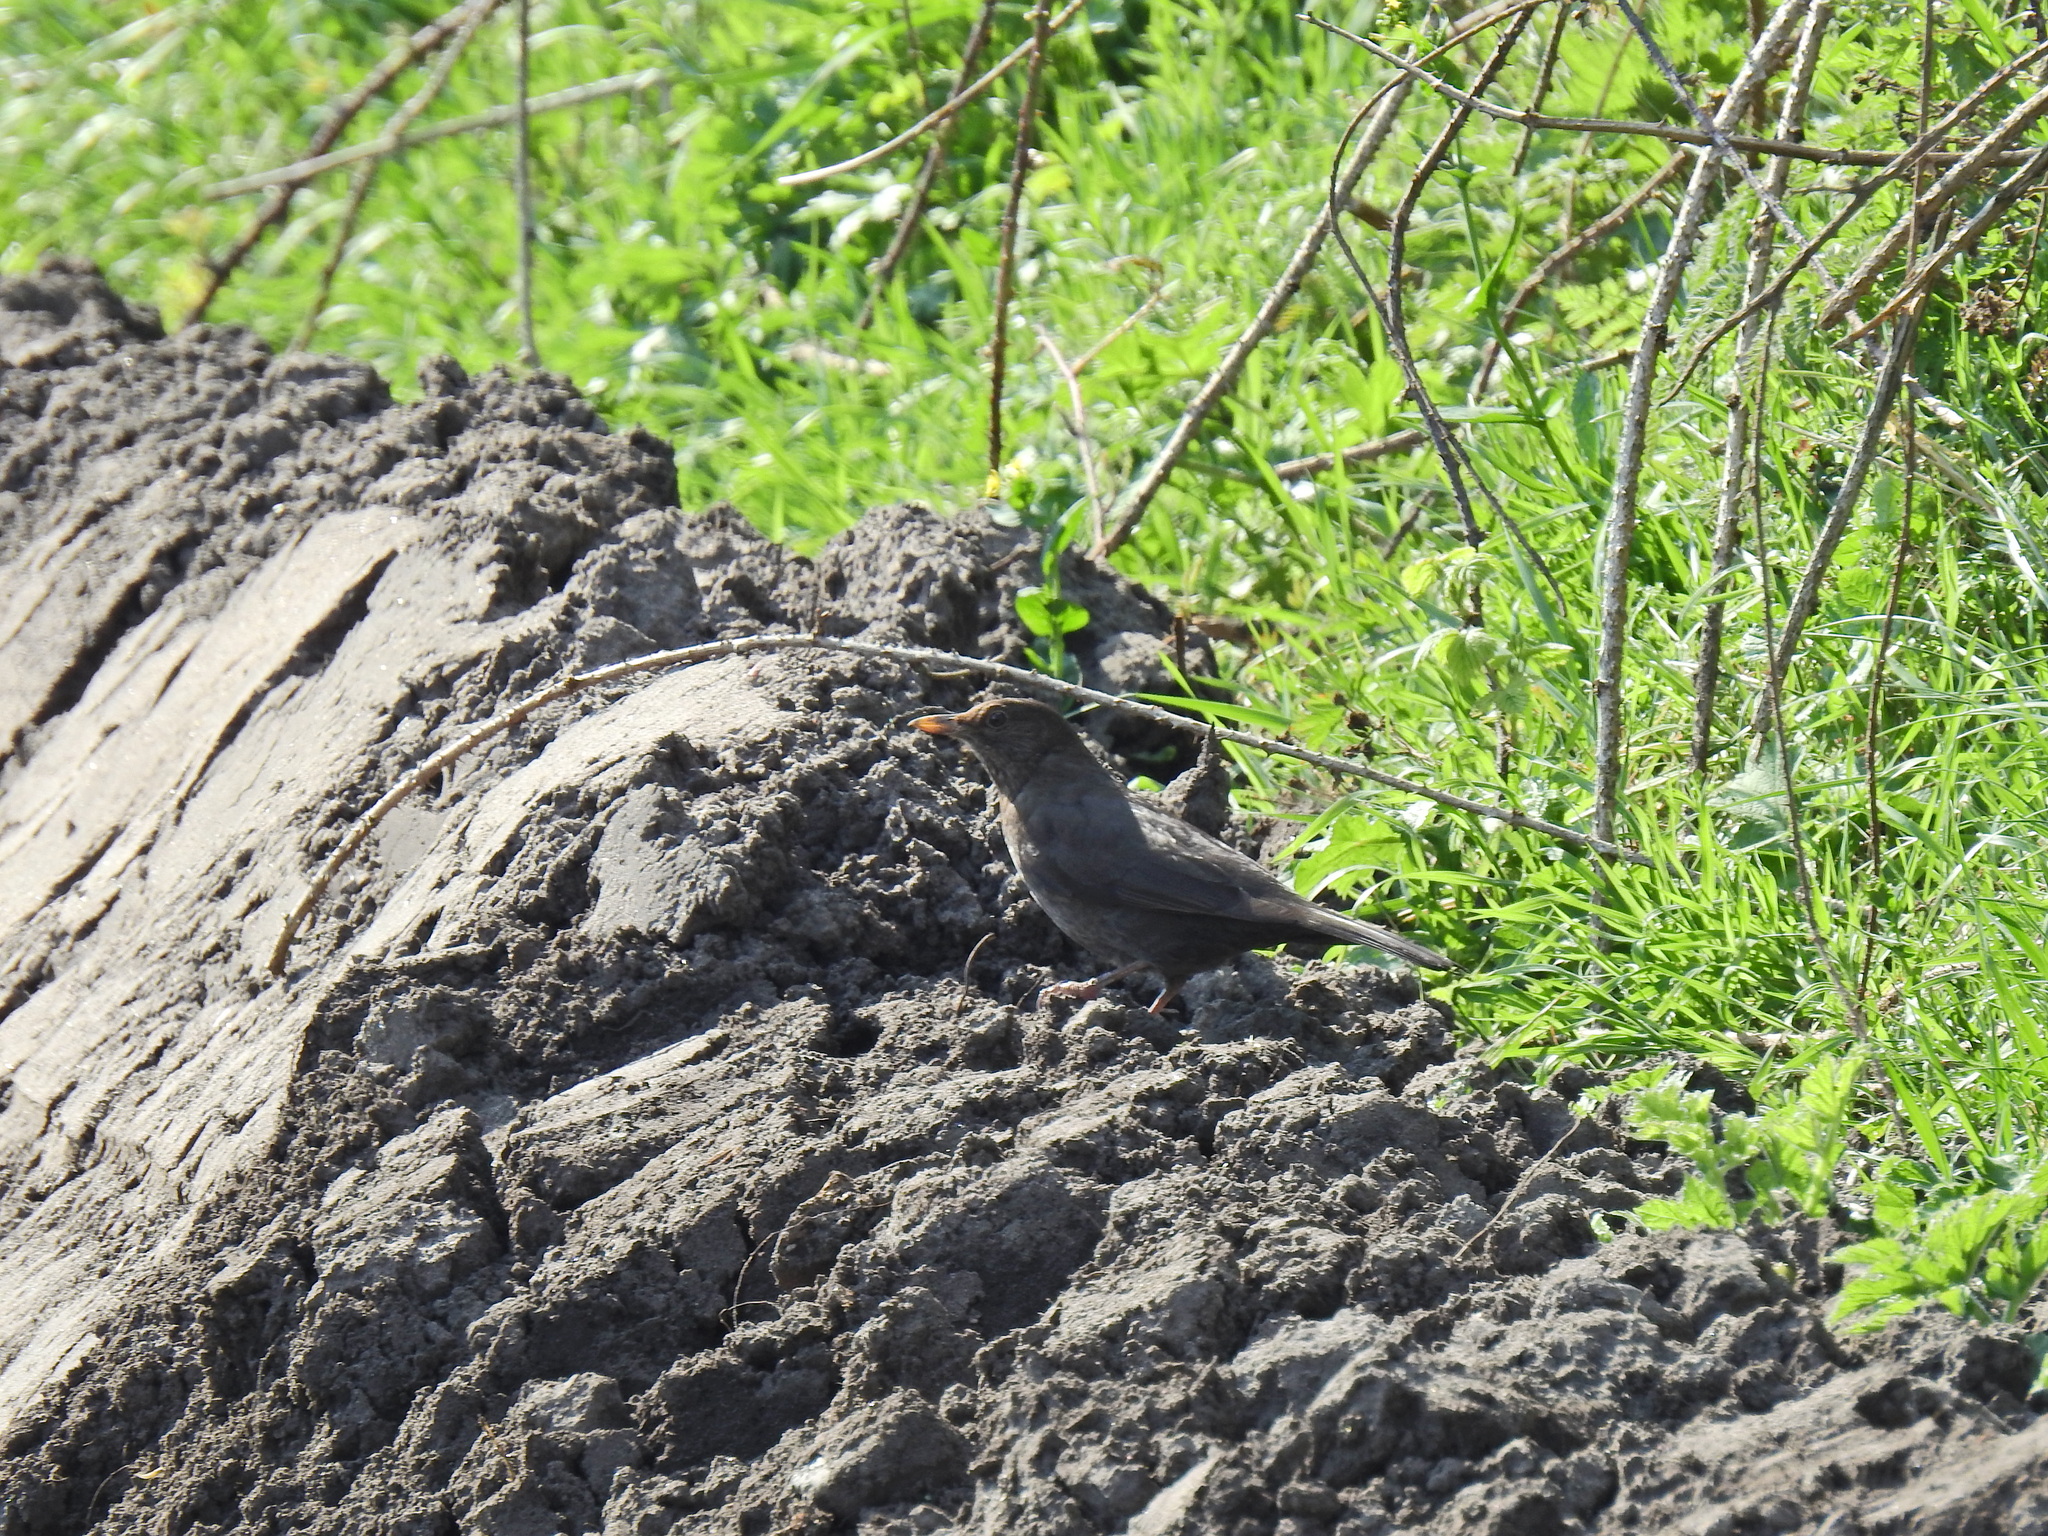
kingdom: Animalia
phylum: Chordata
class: Aves
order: Passeriformes
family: Turdidae
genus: Turdus
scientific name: Turdus merula
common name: Common blackbird
